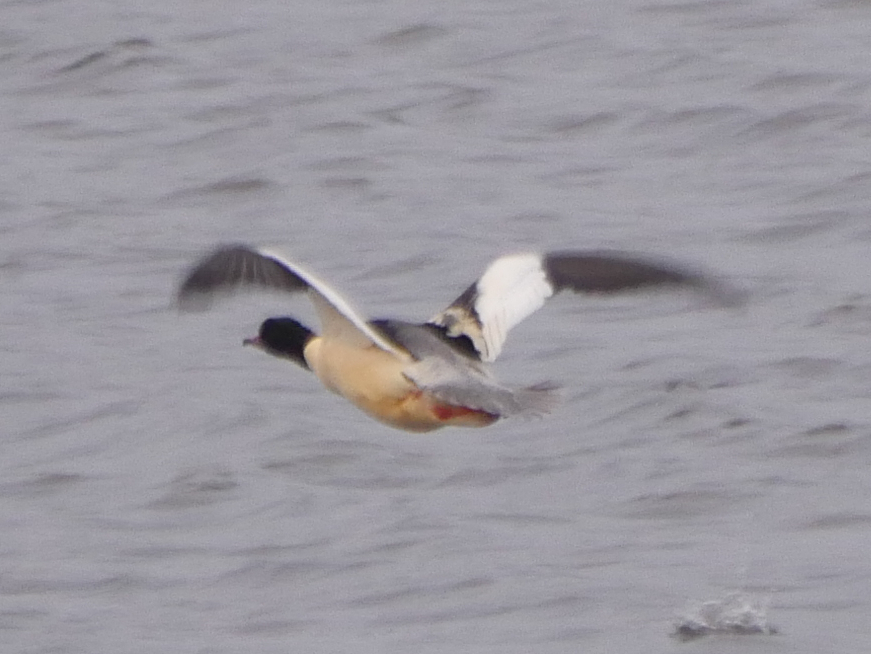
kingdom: Animalia
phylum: Chordata
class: Aves
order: Anseriformes
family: Anatidae
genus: Mergus
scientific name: Mergus merganser
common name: Common merganser
